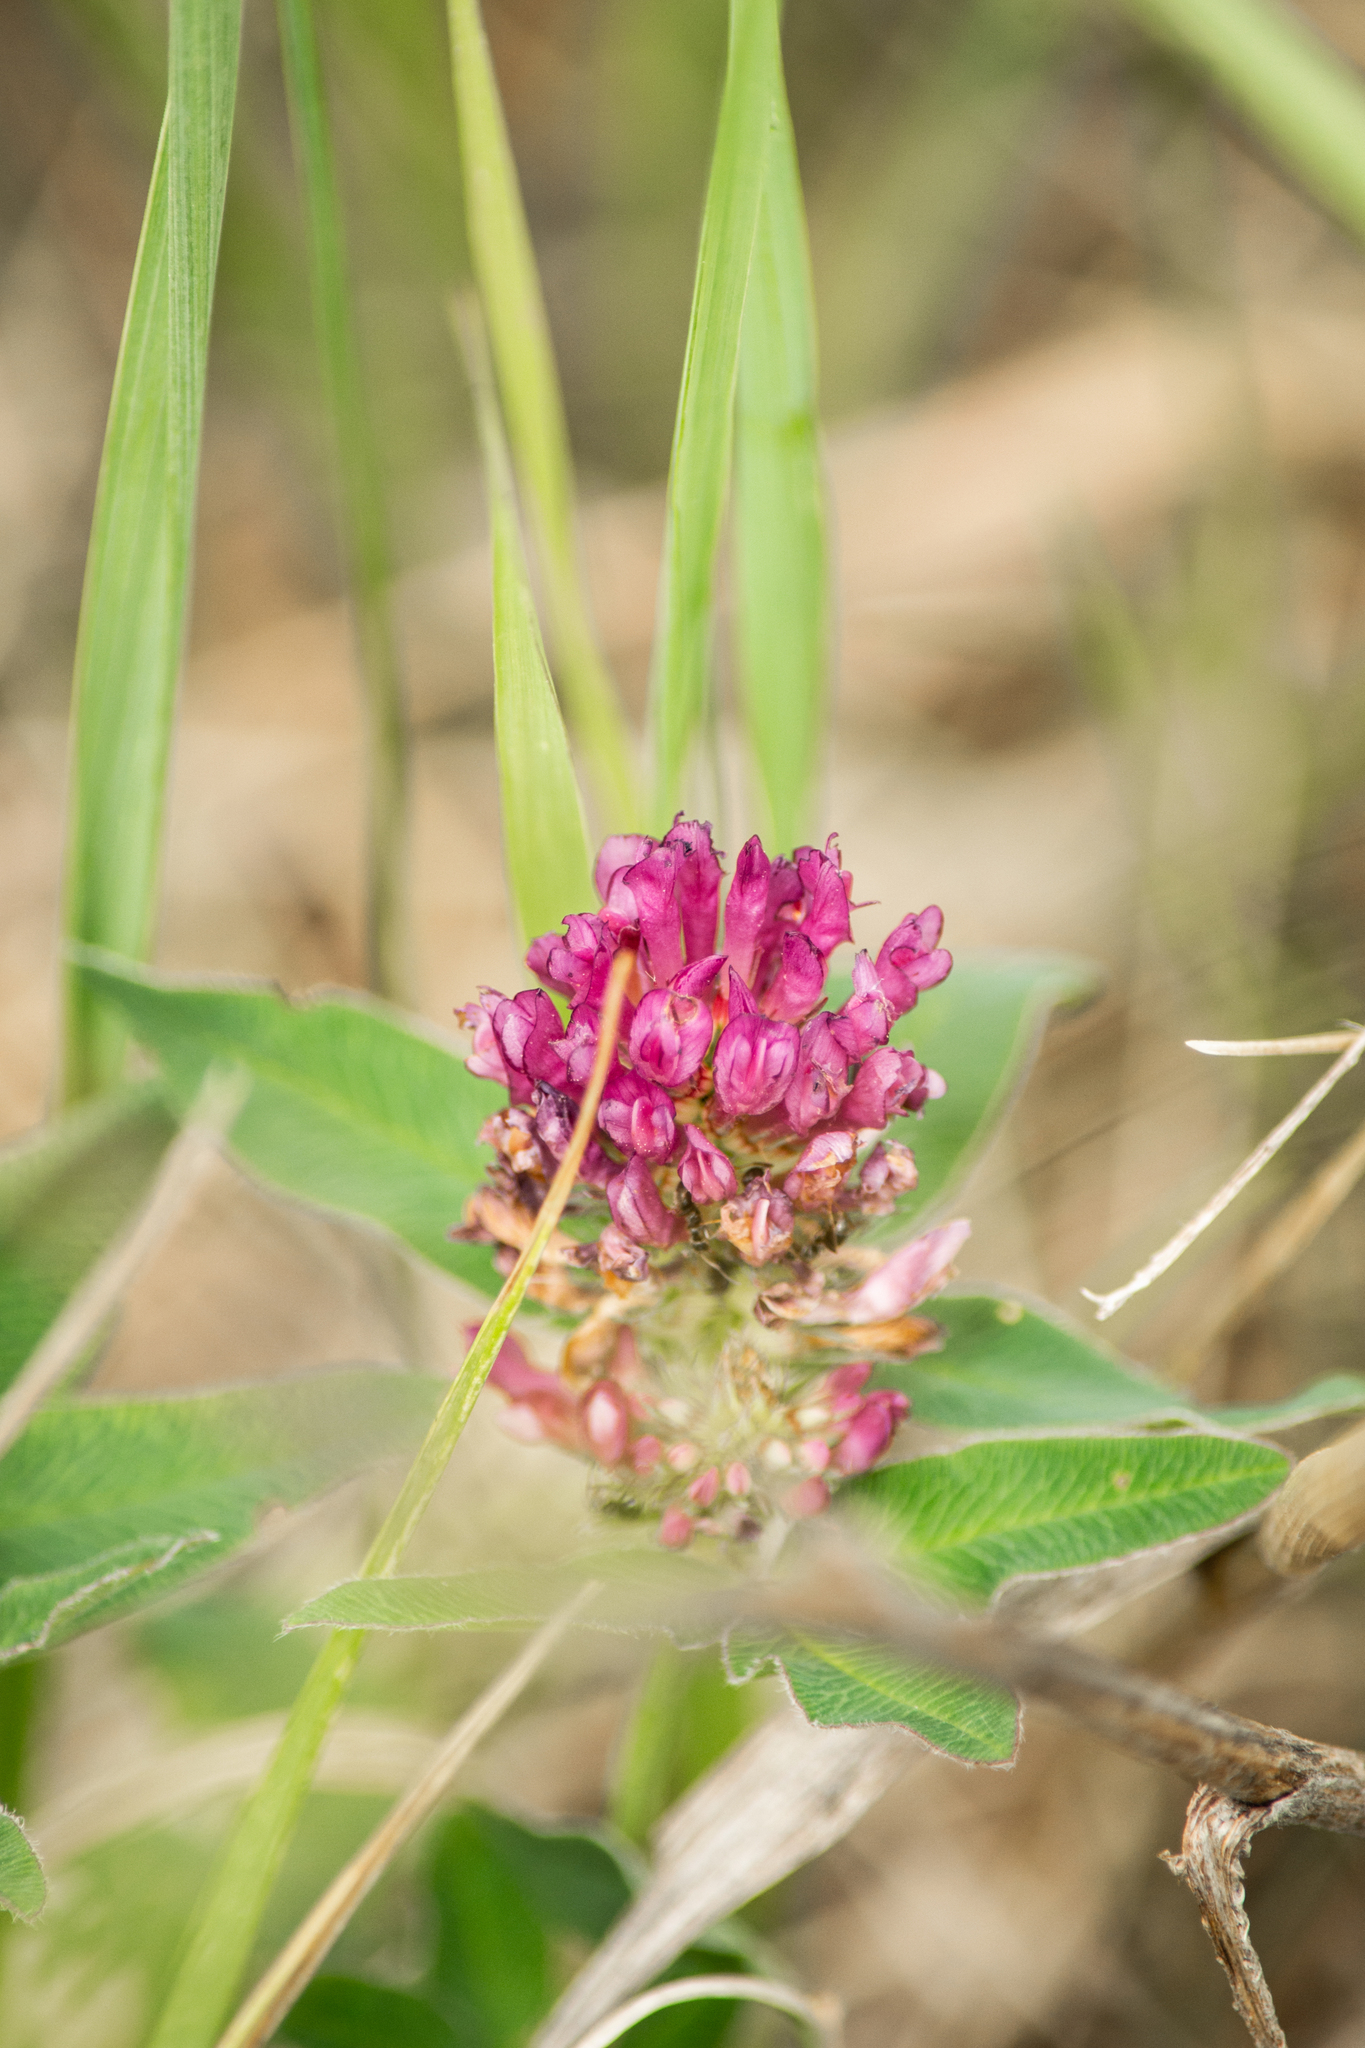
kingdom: Plantae
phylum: Tracheophyta
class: Magnoliopsida
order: Fabales
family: Fabaceae
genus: Trifolium
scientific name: Trifolium medium
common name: Zigzag clover
